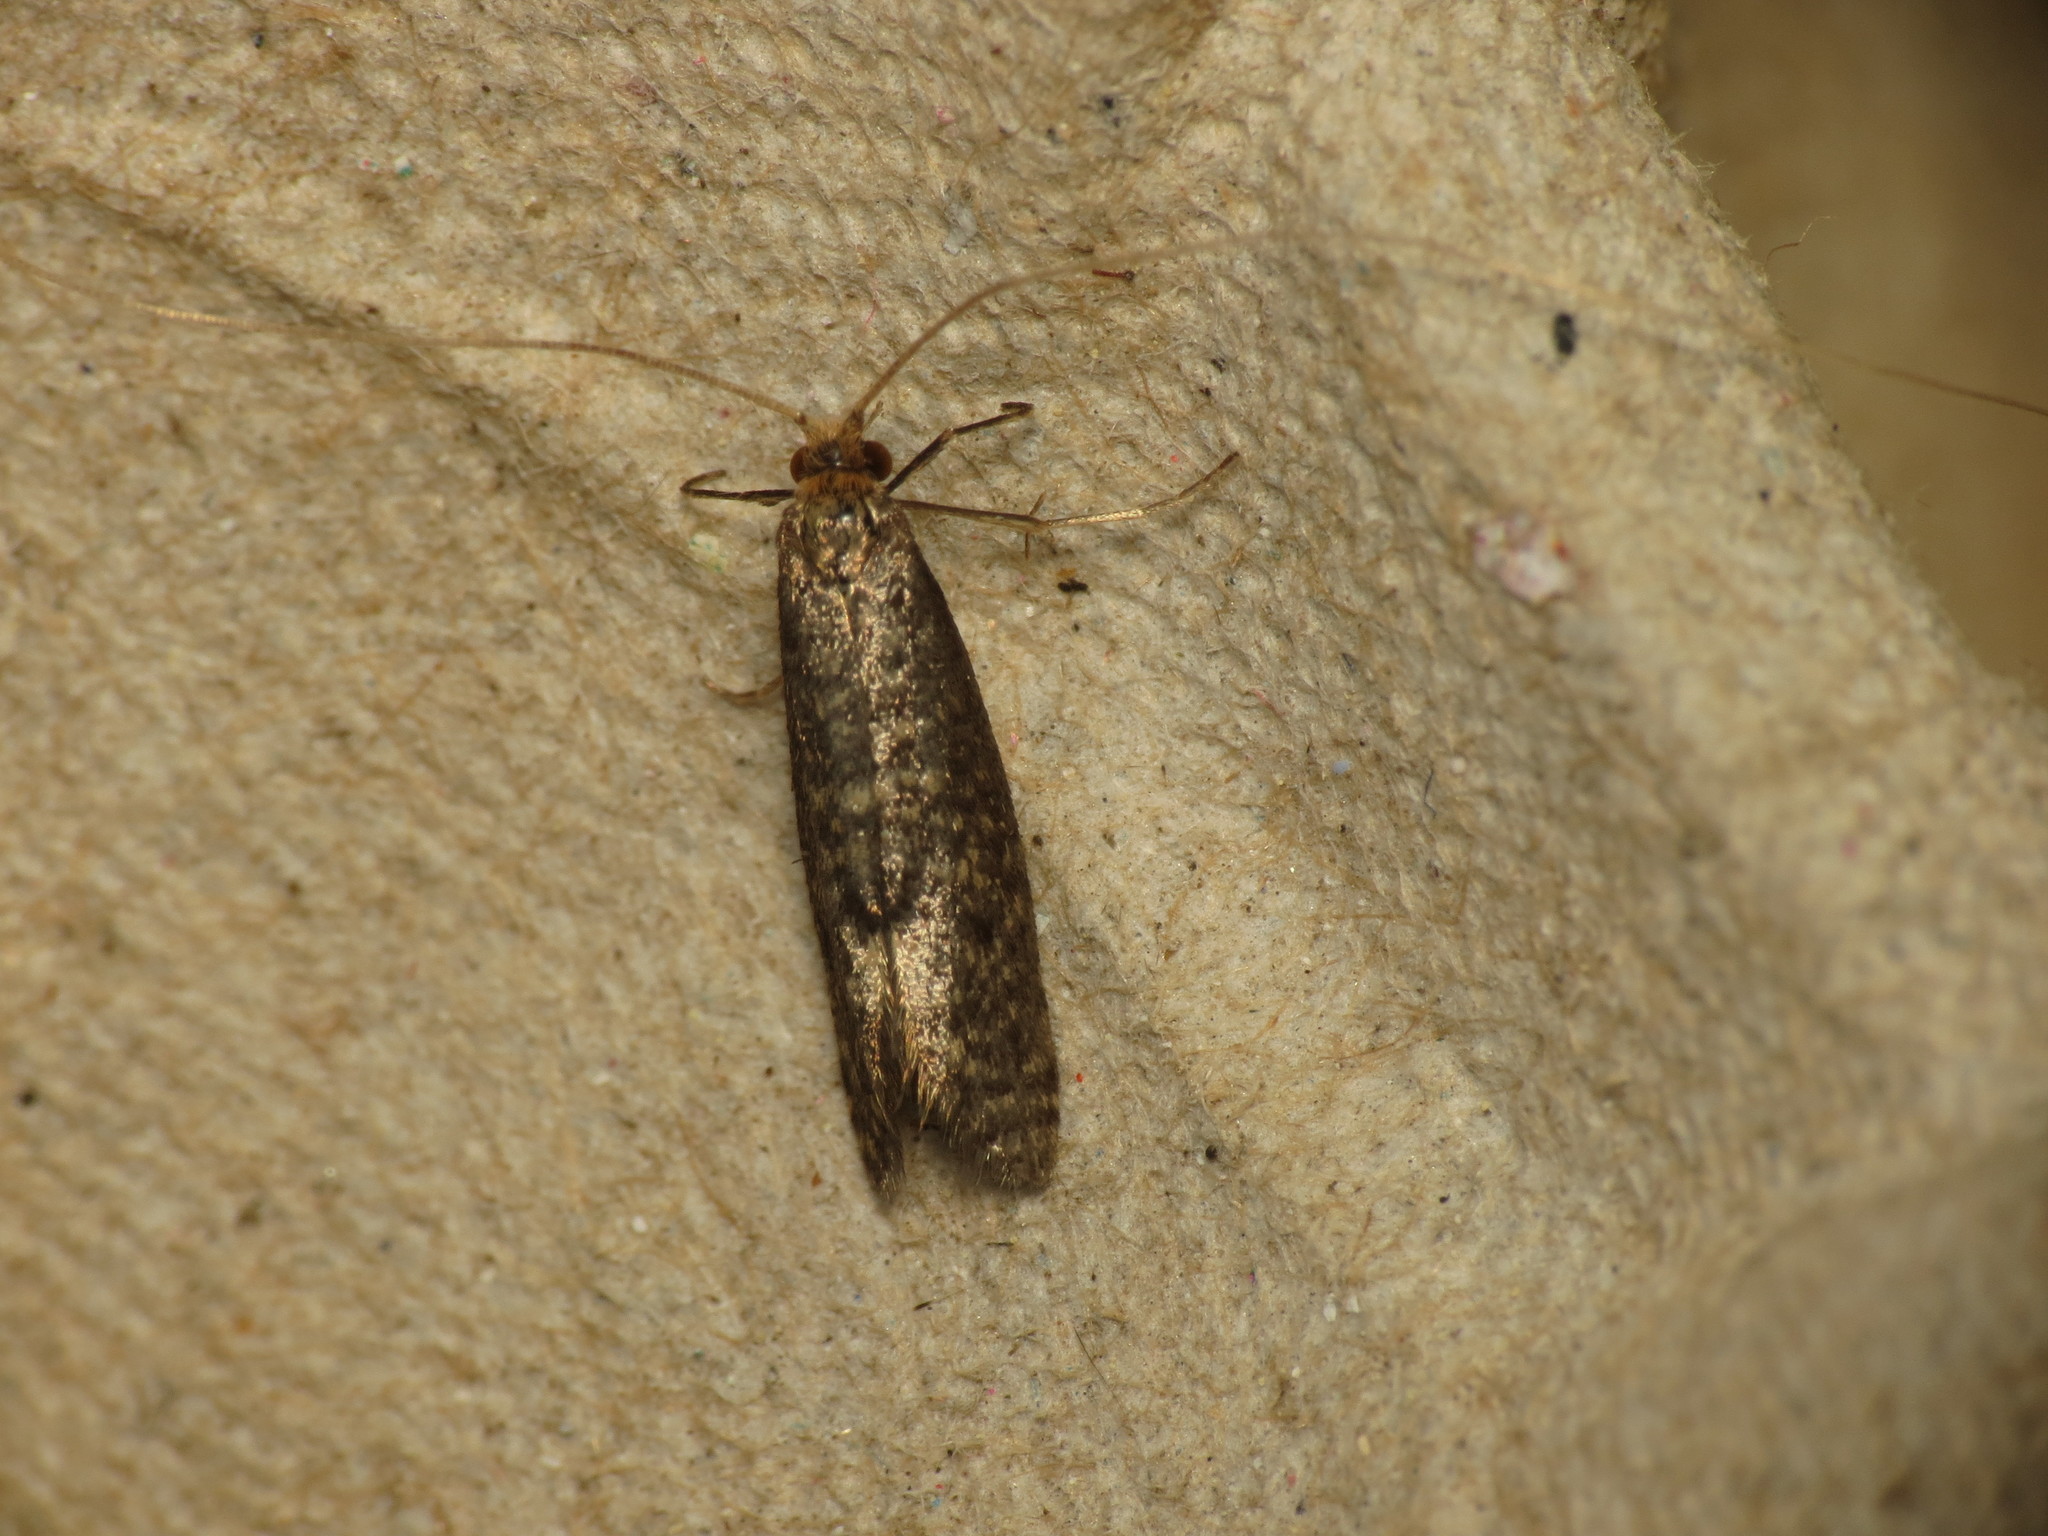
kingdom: Animalia
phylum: Arthropoda
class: Insecta
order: Lepidoptera
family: Adelidae
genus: Nematopogon
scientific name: Nematopogon robertella
